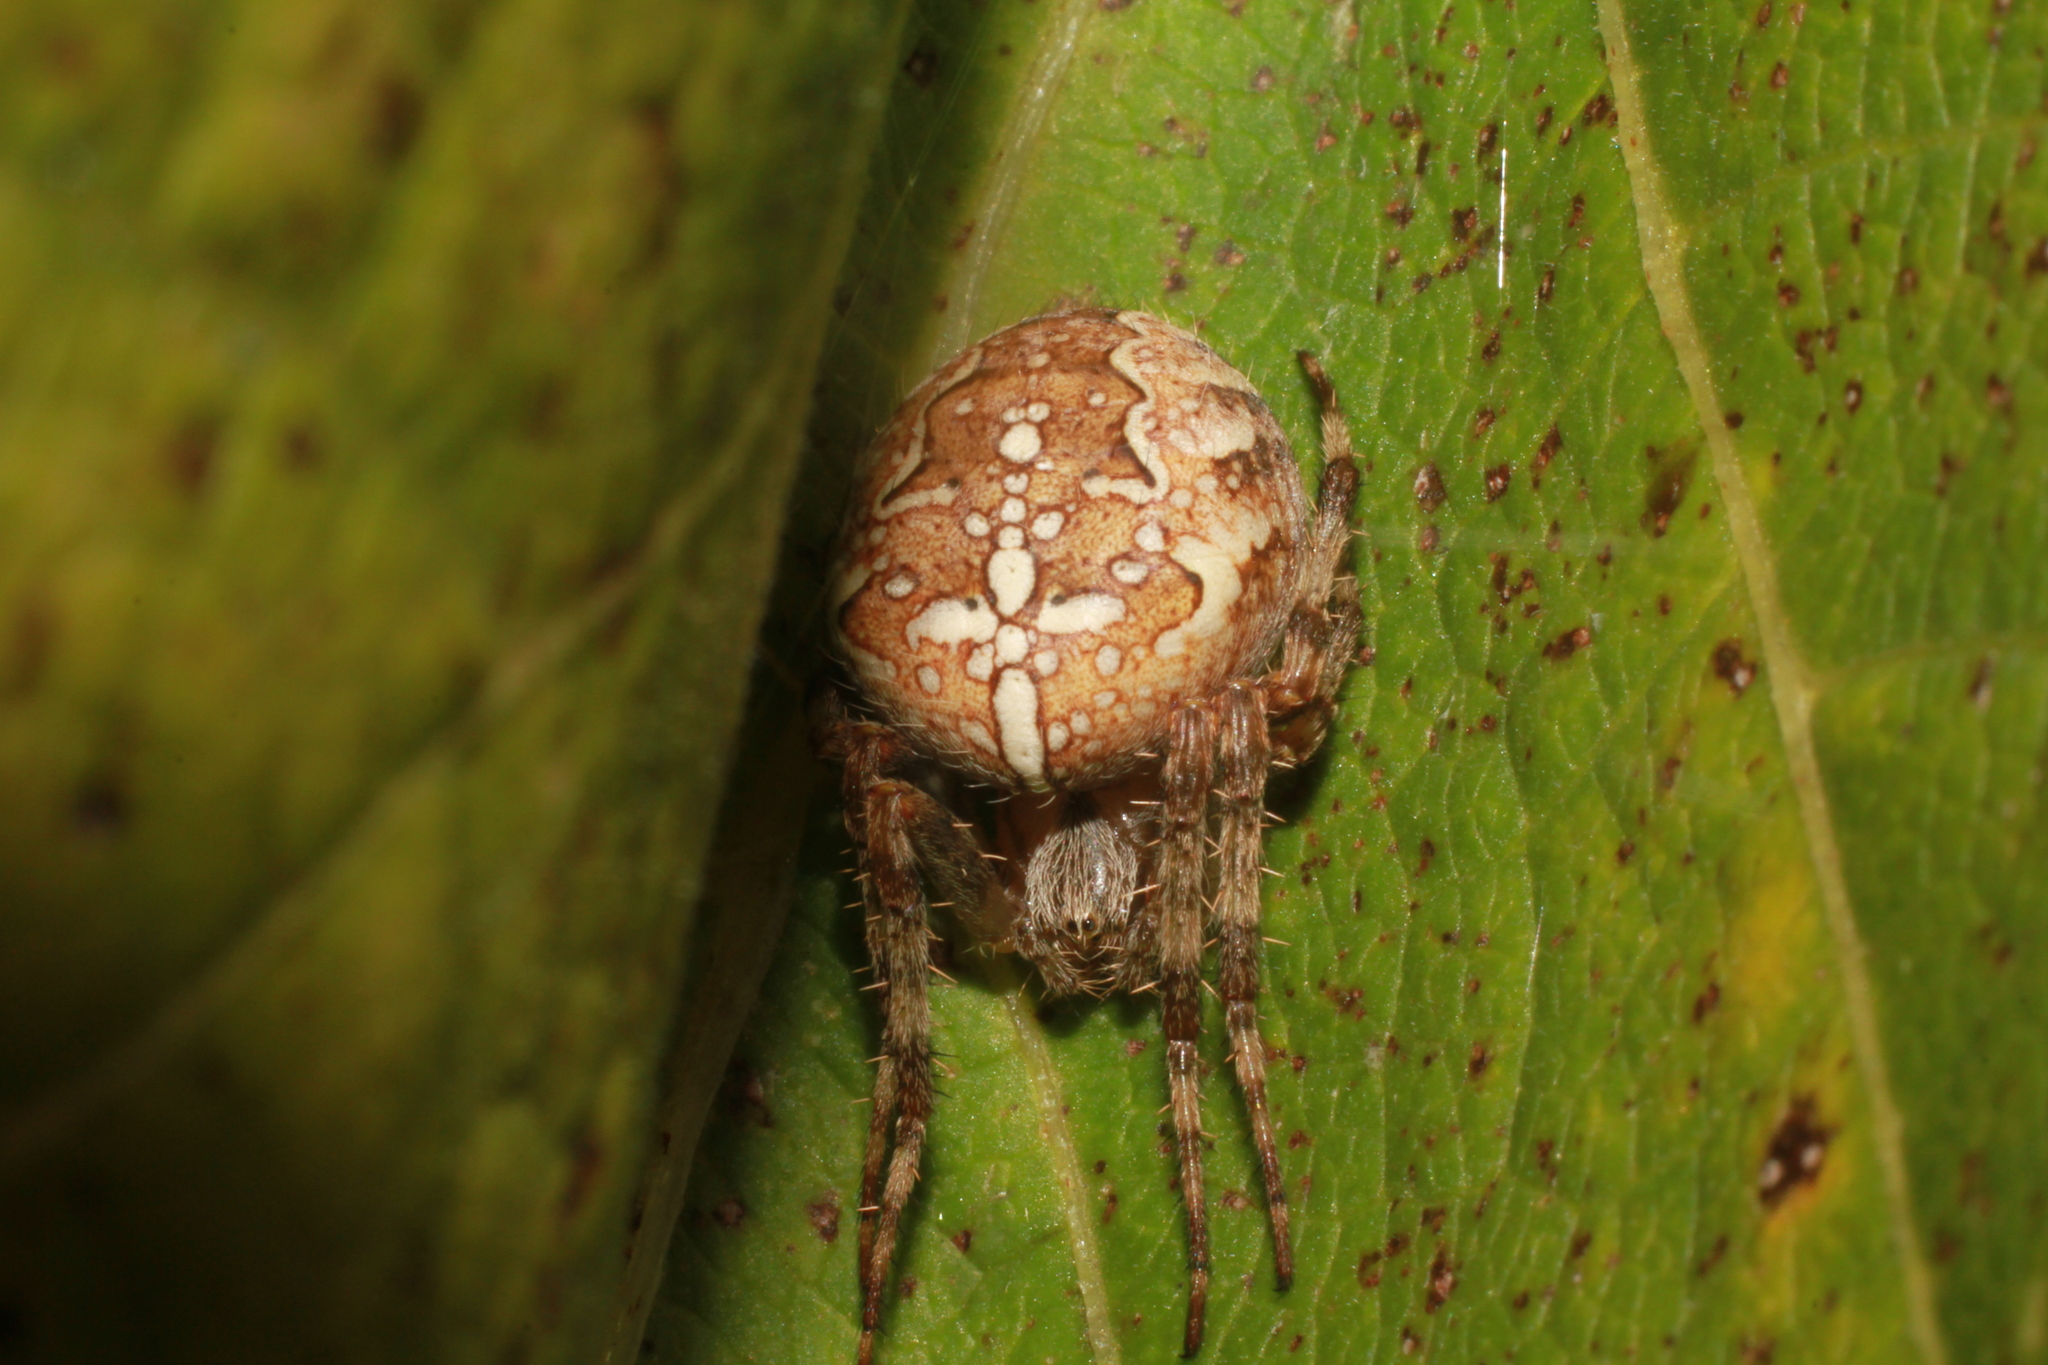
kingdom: Animalia
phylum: Arthropoda
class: Arachnida
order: Araneae
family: Araneidae
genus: Araneus
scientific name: Araneus diadematus
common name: Cross orbweaver
